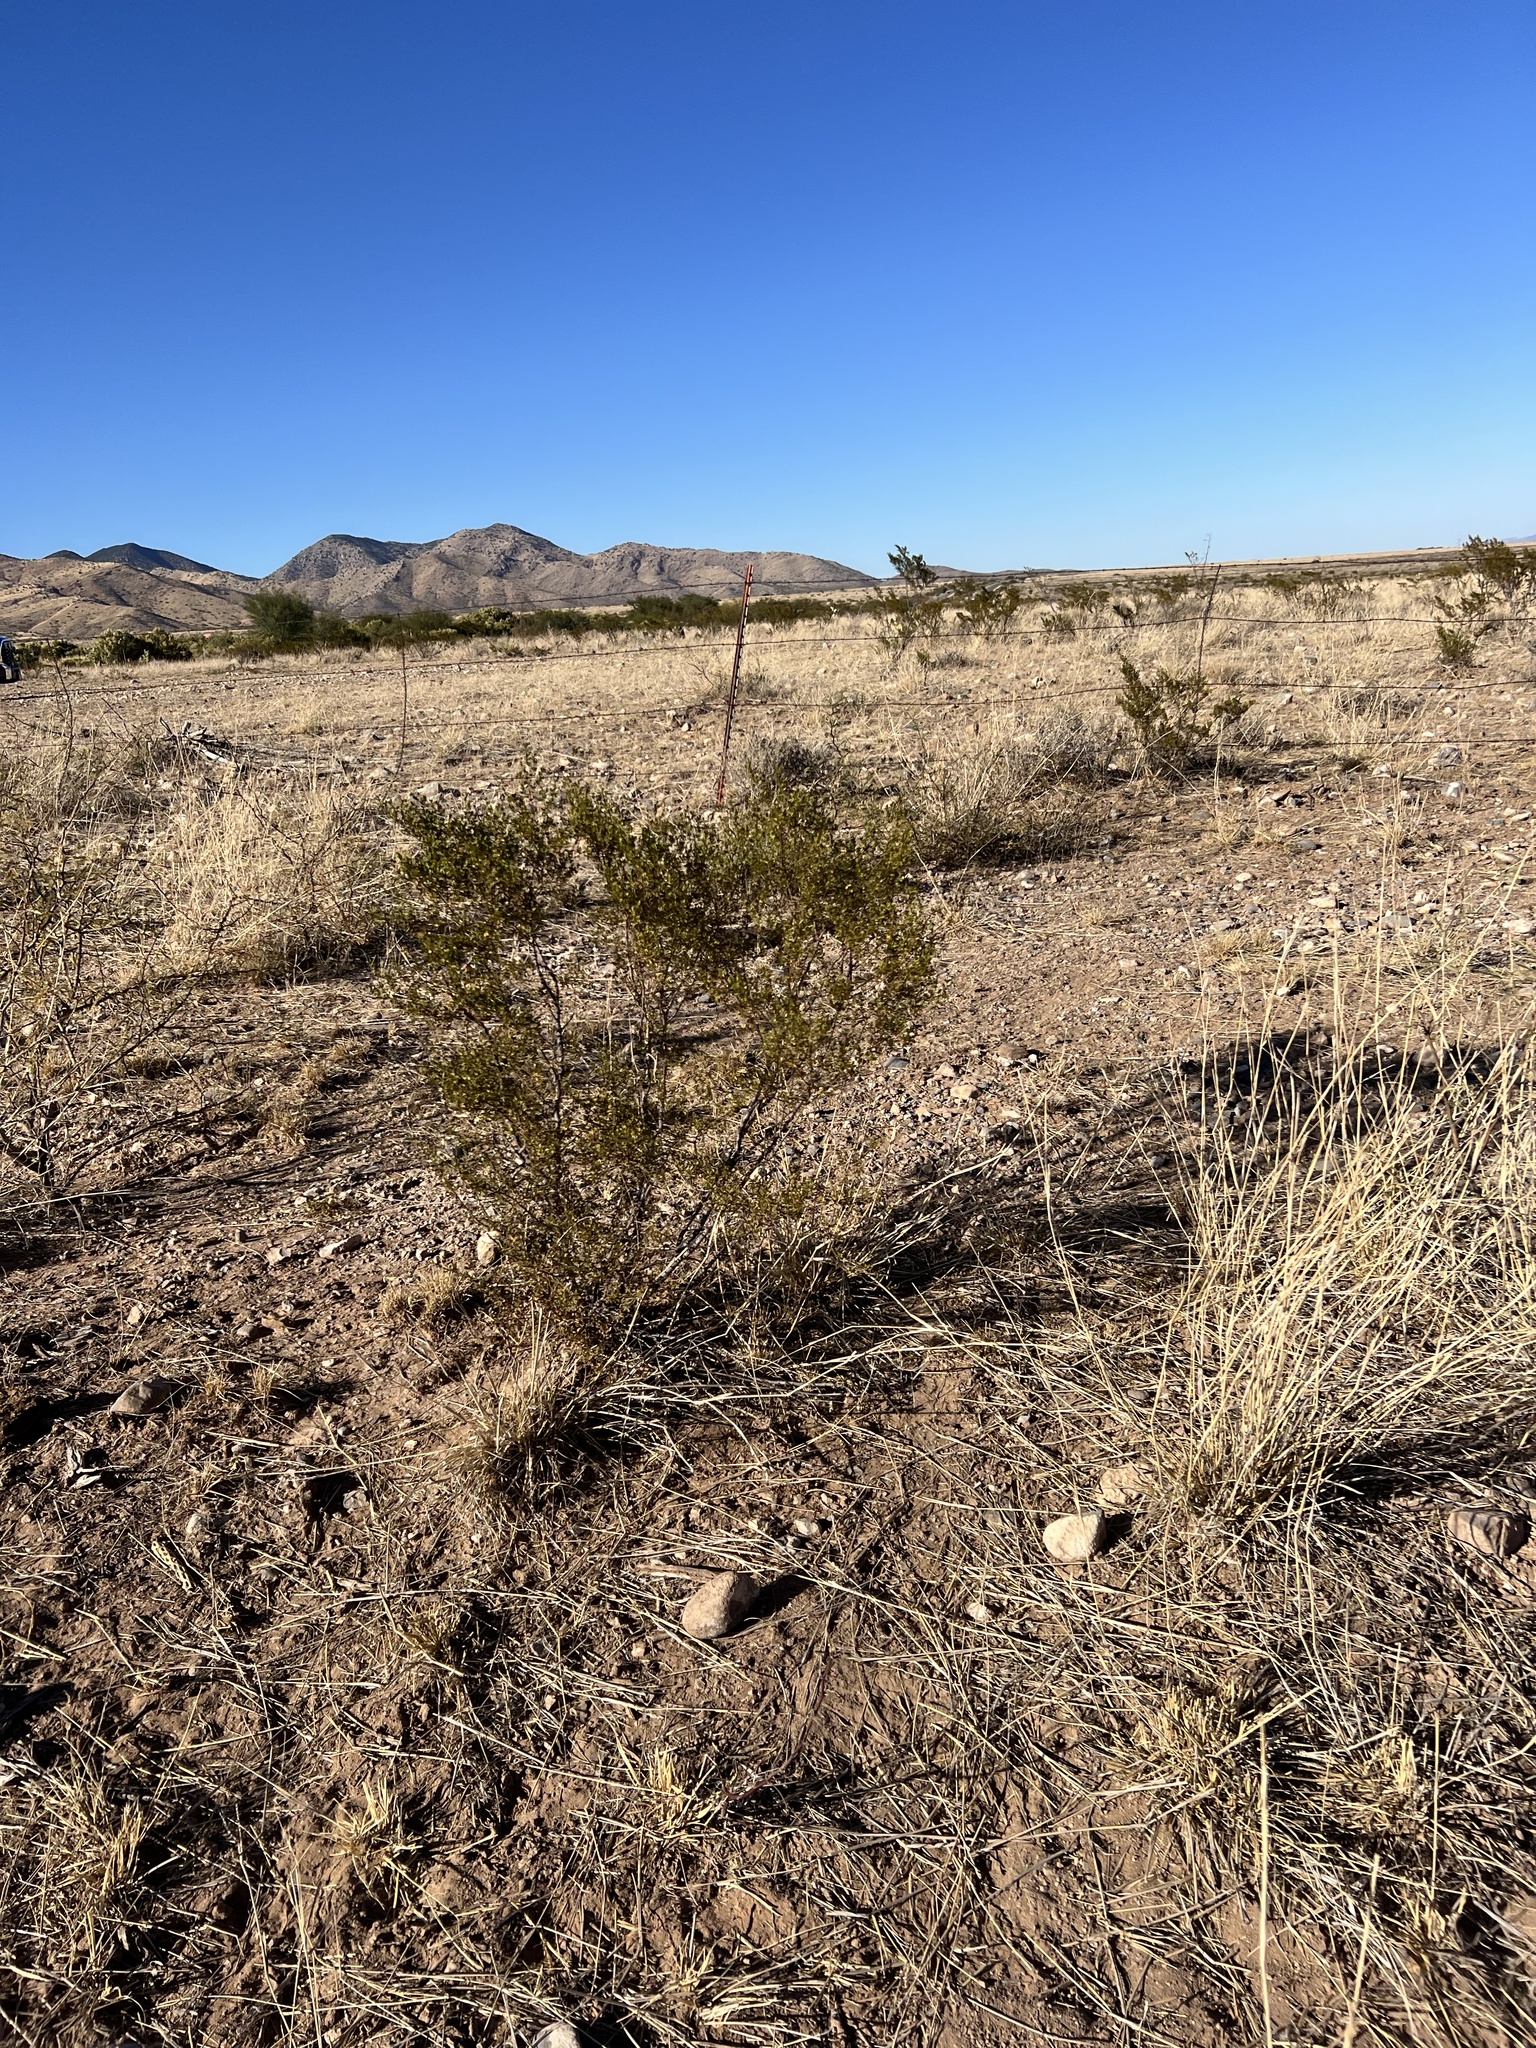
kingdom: Plantae
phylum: Tracheophyta
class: Magnoliopsida
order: Zygophyllales
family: Zygophyllaceae
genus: Larrea
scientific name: Larrea tridentata
